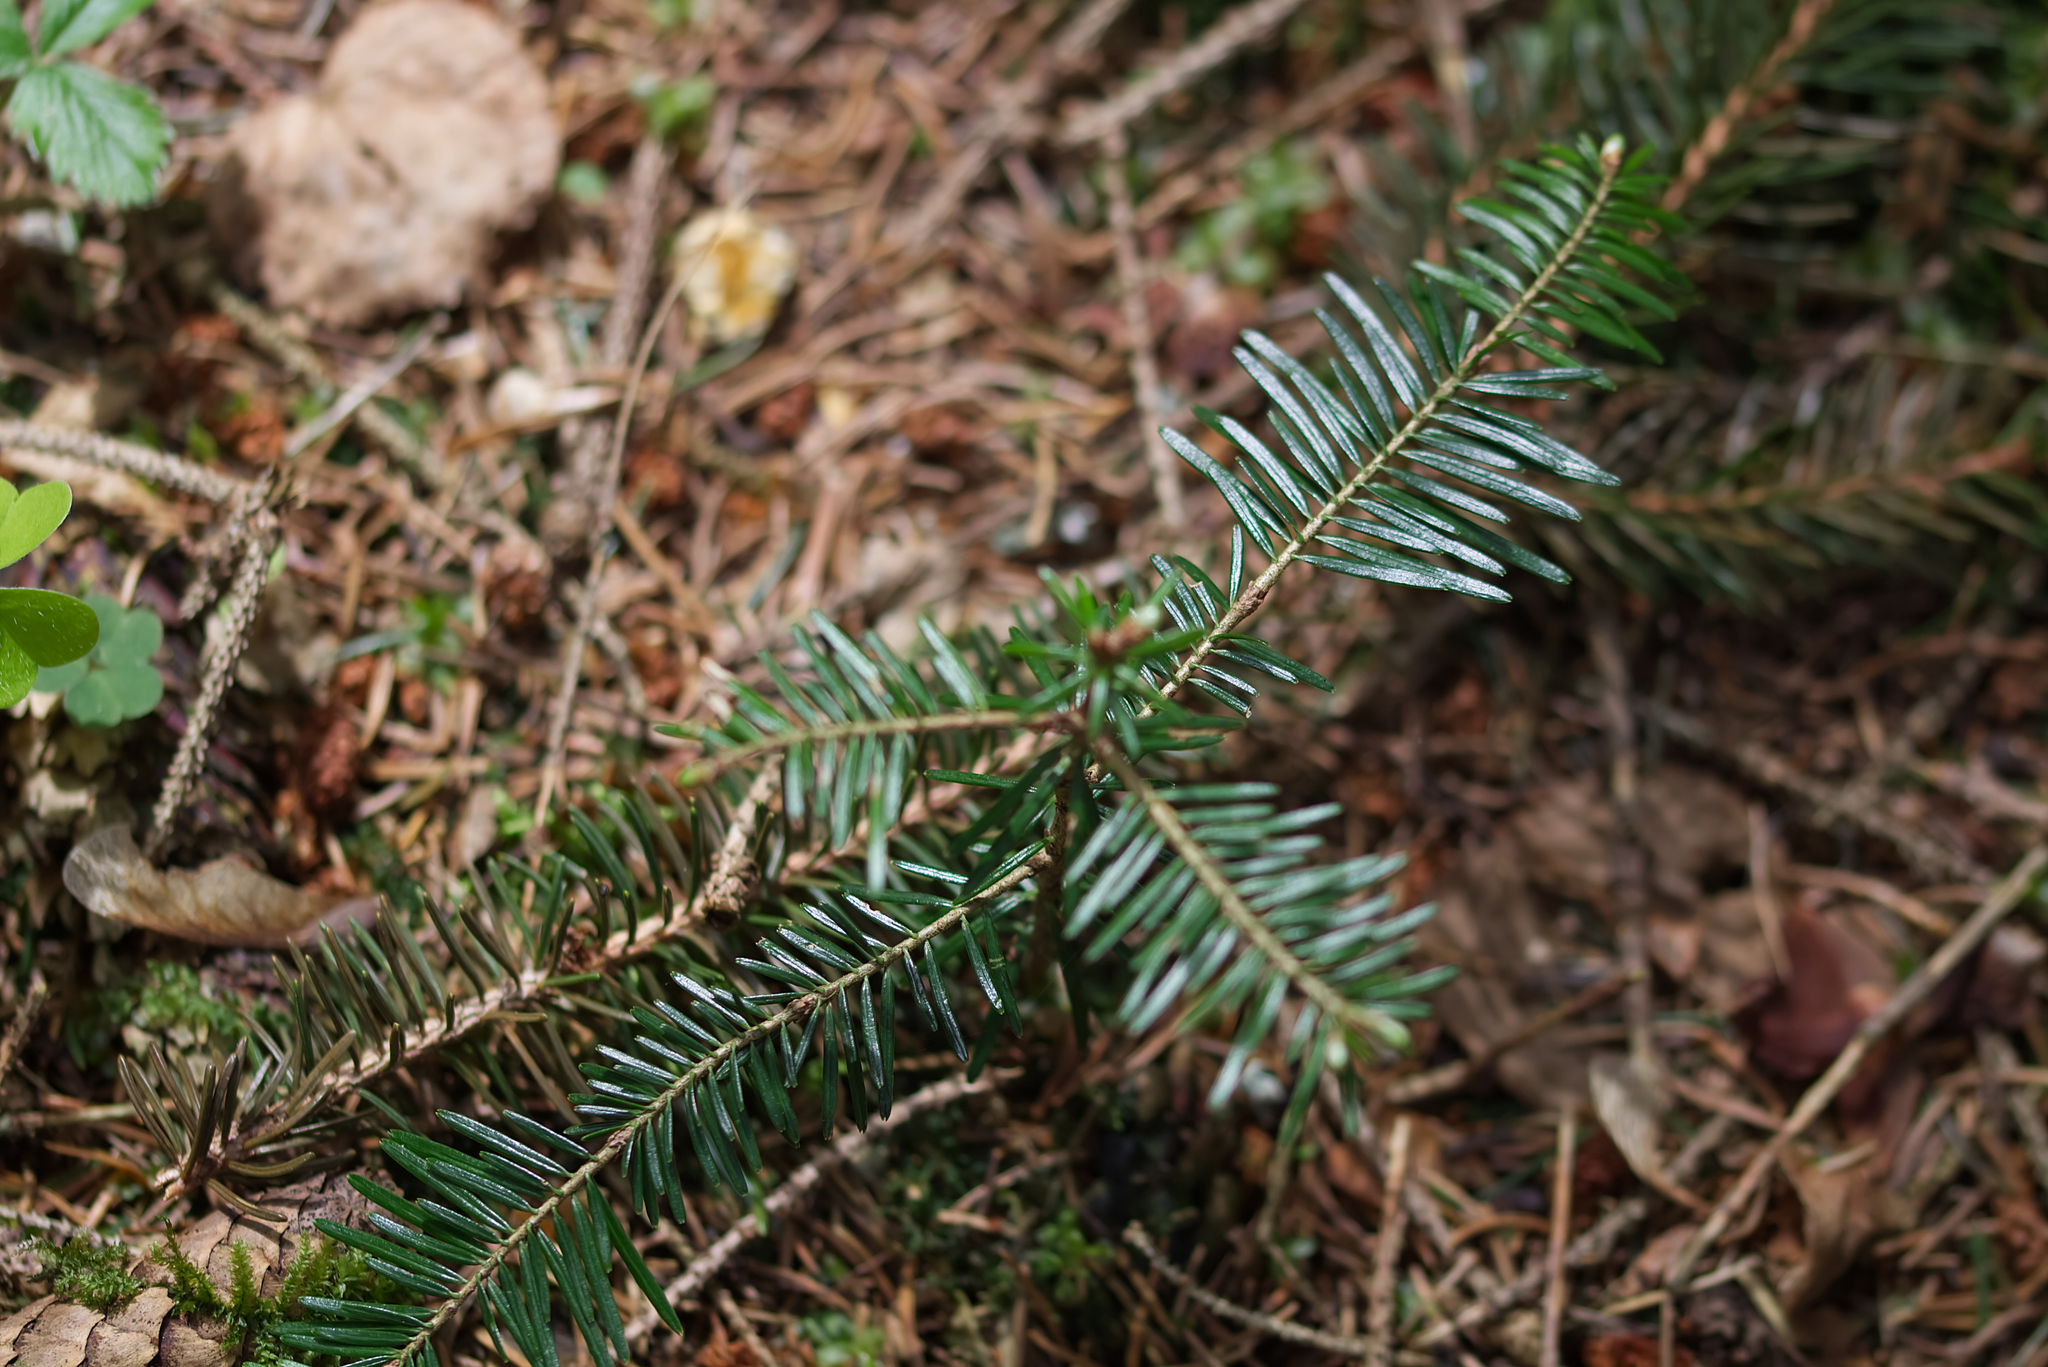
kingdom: Plantae
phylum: Tracheophyta
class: Pinopsida
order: Pinales
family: Pinaceae
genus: Abies
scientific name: Abies alba
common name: Silver fir
